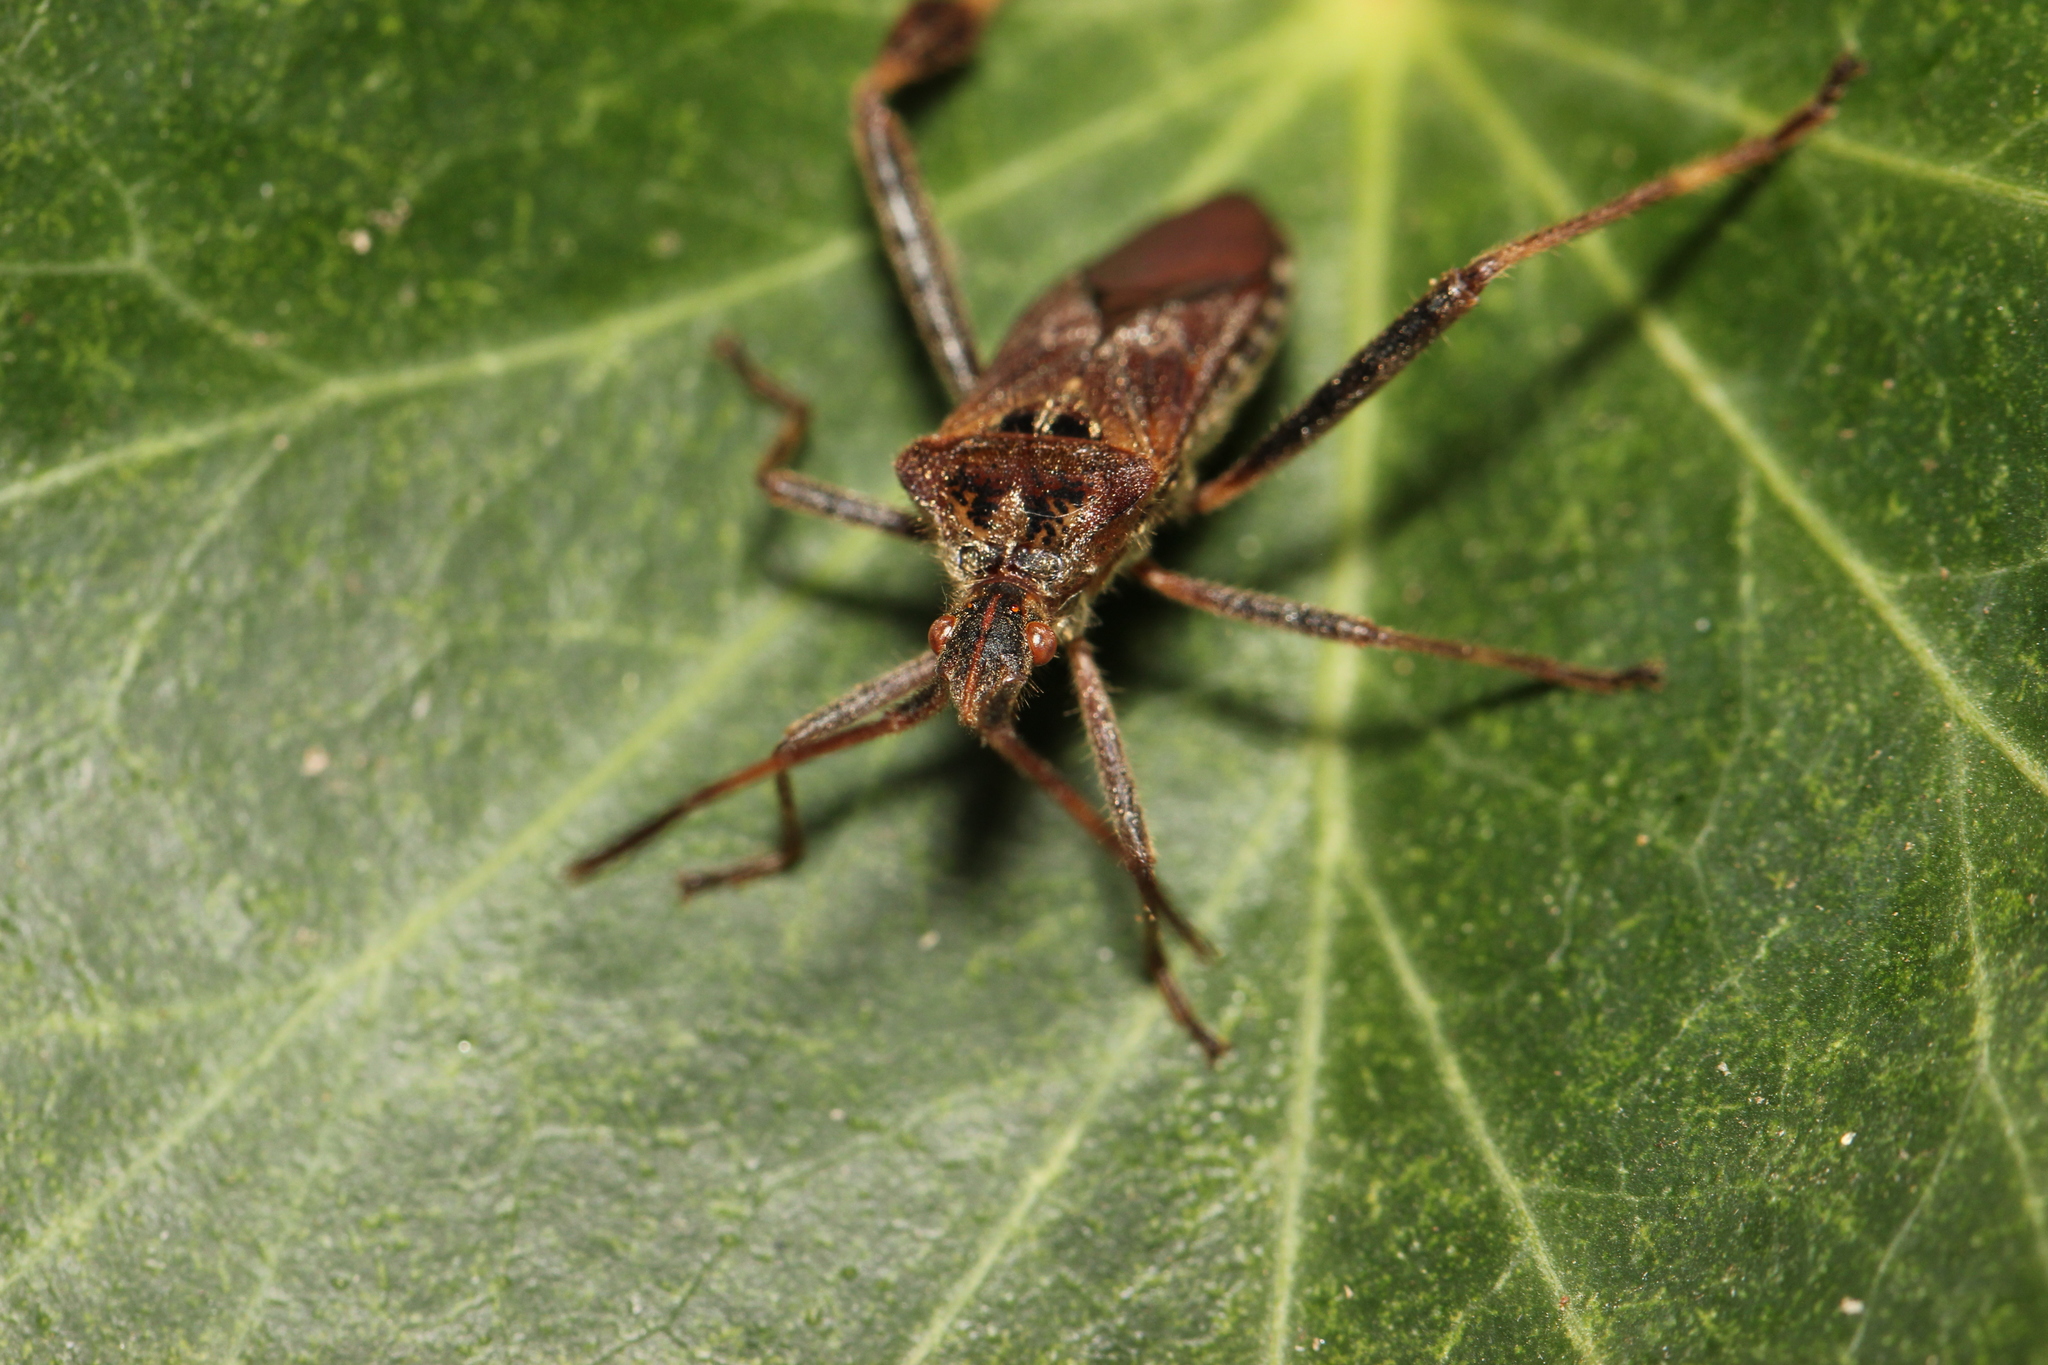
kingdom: Animalia
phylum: Arthropoda
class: Insecta
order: Hemiptera
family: Coreidae
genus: Leptoglossus
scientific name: Leptoglossus occidentalis
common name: Western conifer-seed bug
